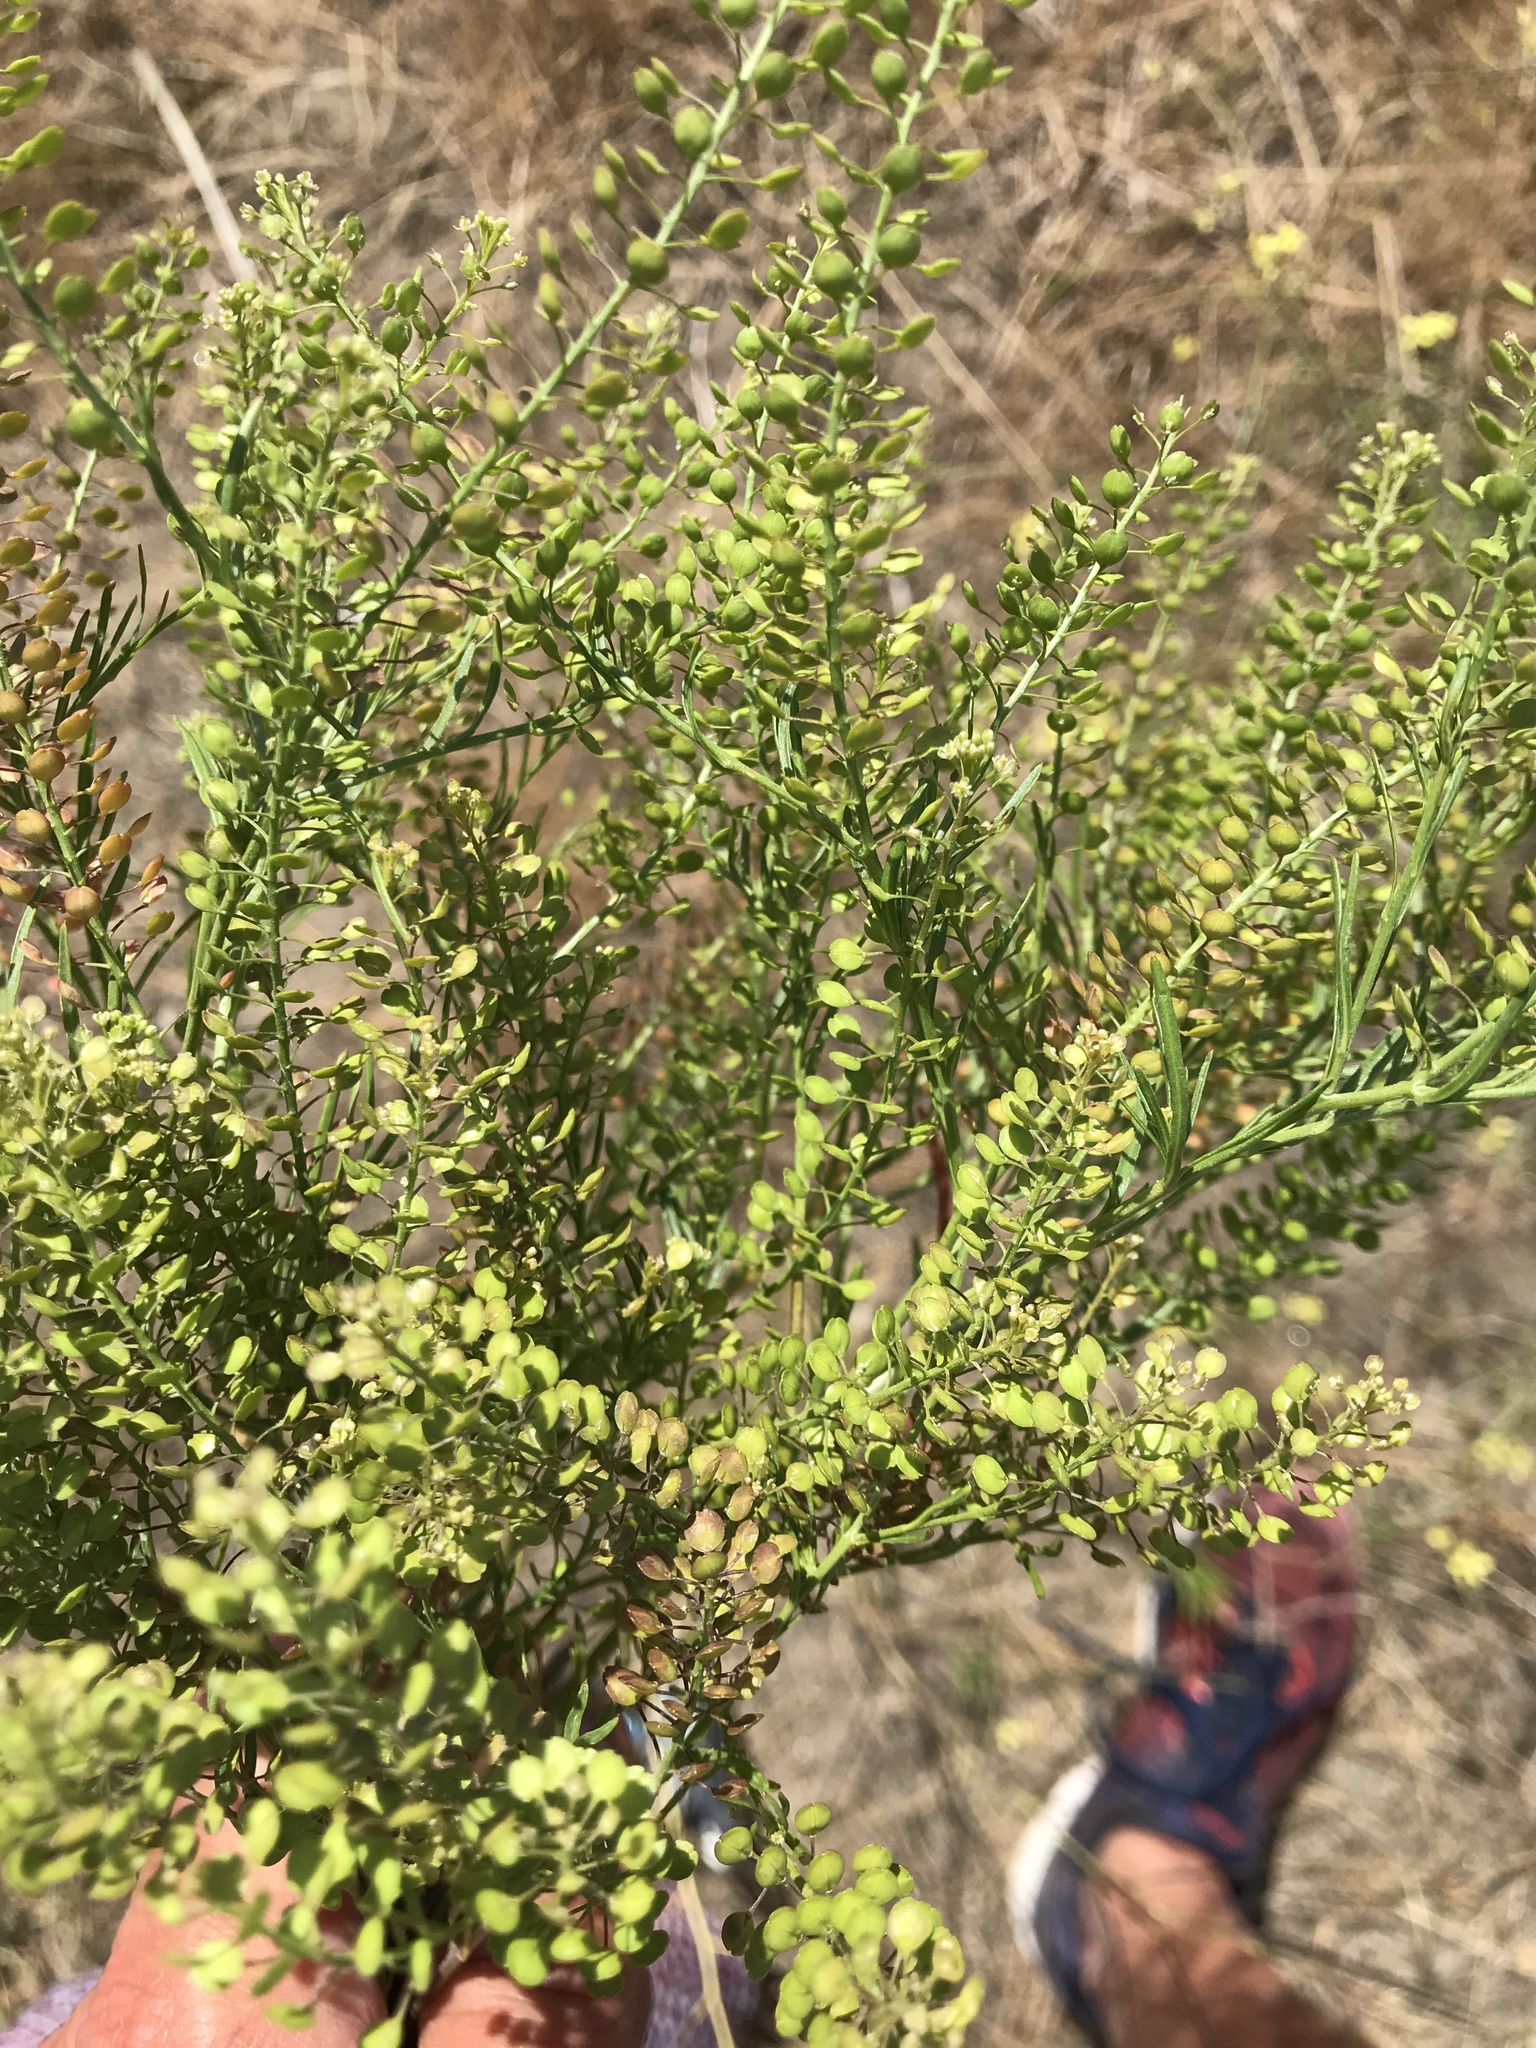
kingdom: Plantae
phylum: Tracheophyta
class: Magnoliopsida
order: Brassicales
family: Brassicaceae
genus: Lepidium
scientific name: Lepidium densiflorum
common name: Miner's pepperwort
